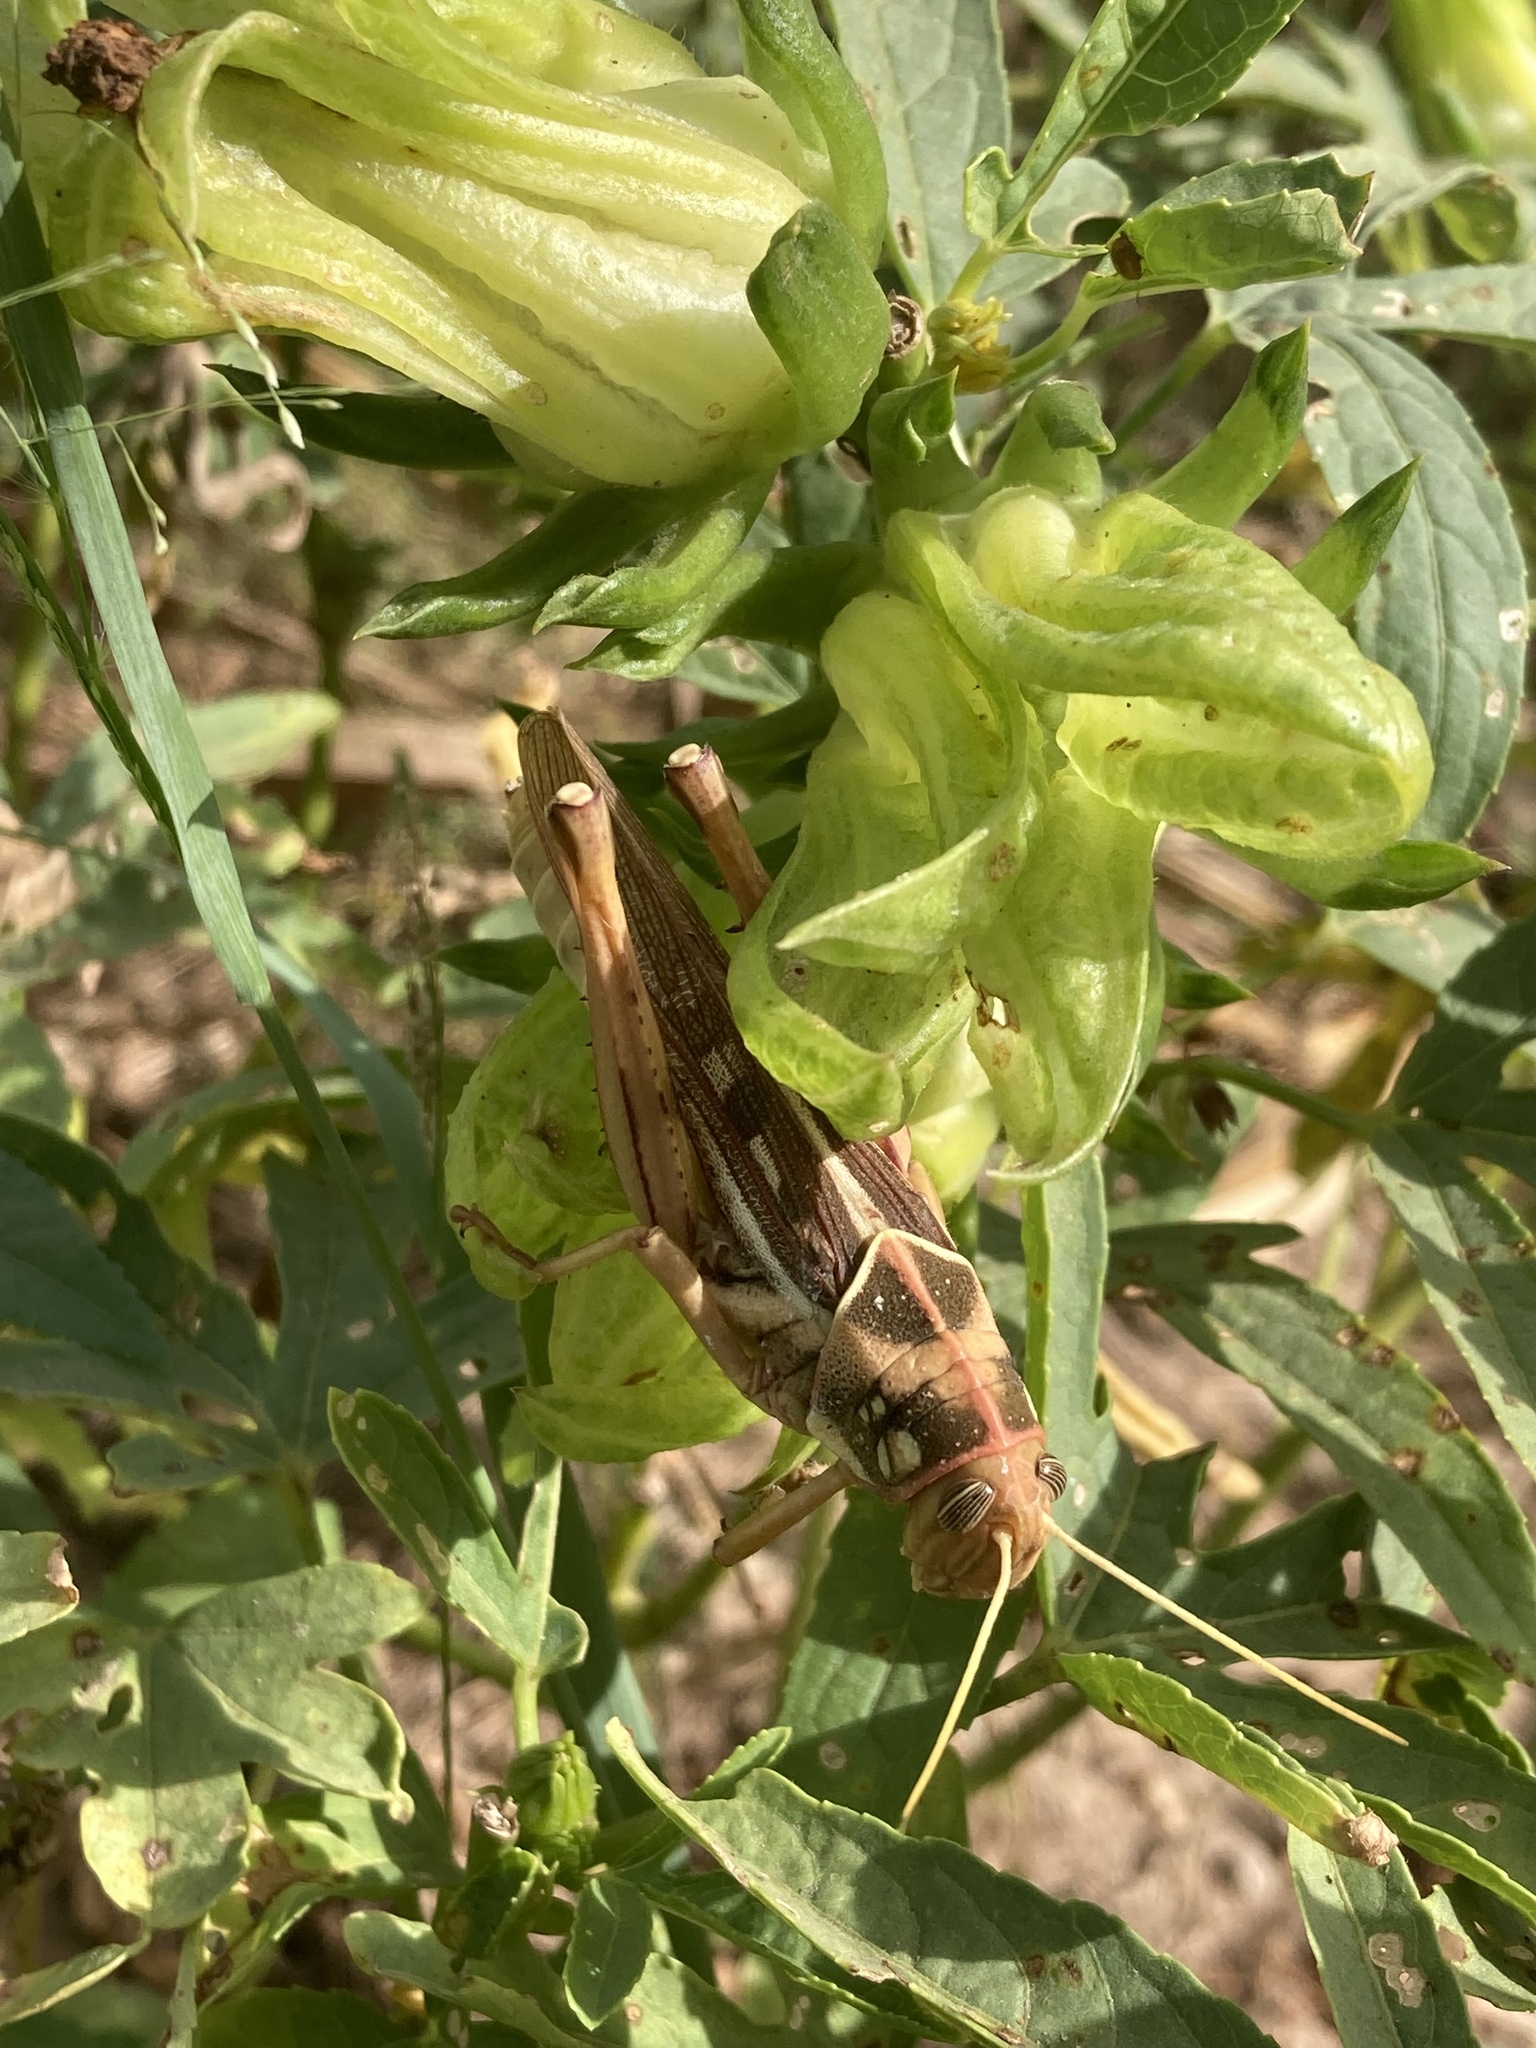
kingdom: Animalia
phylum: Arthropoda
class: Insecta
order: Orthoptera
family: Acrididae
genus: Kraussaria
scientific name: Kraussaria angulifera
